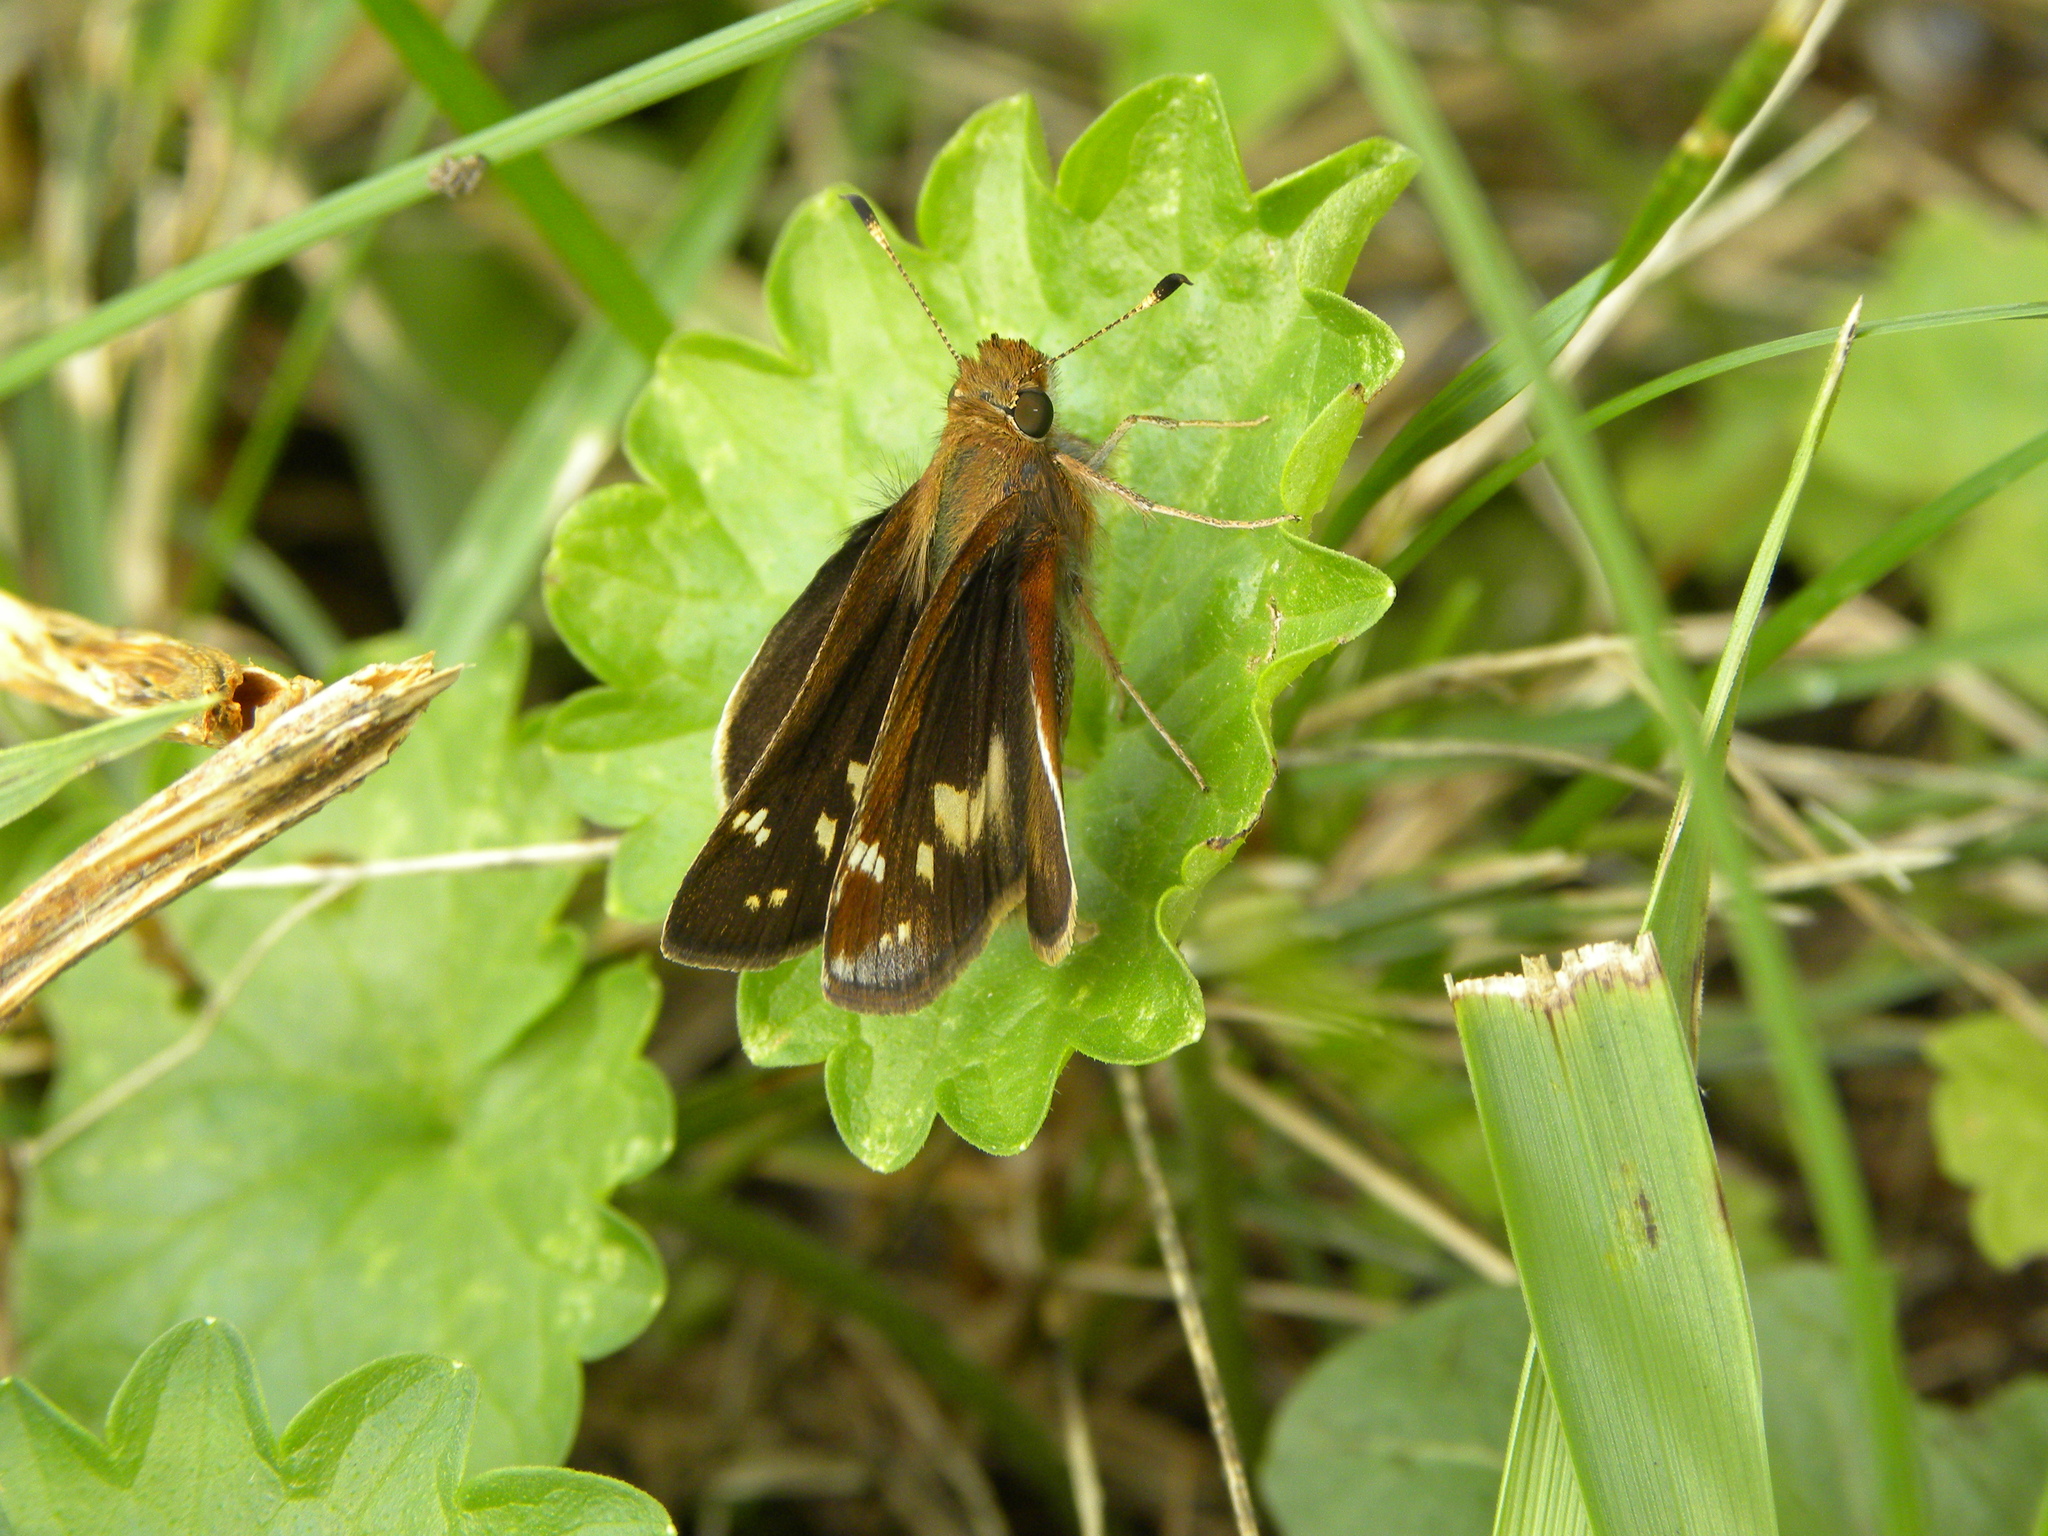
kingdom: Animalia
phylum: Arthropoda
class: Insecta
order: Lepidoptera
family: Hesperiidae
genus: Lon
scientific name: Lon zabulon
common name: Zabulon skipper
